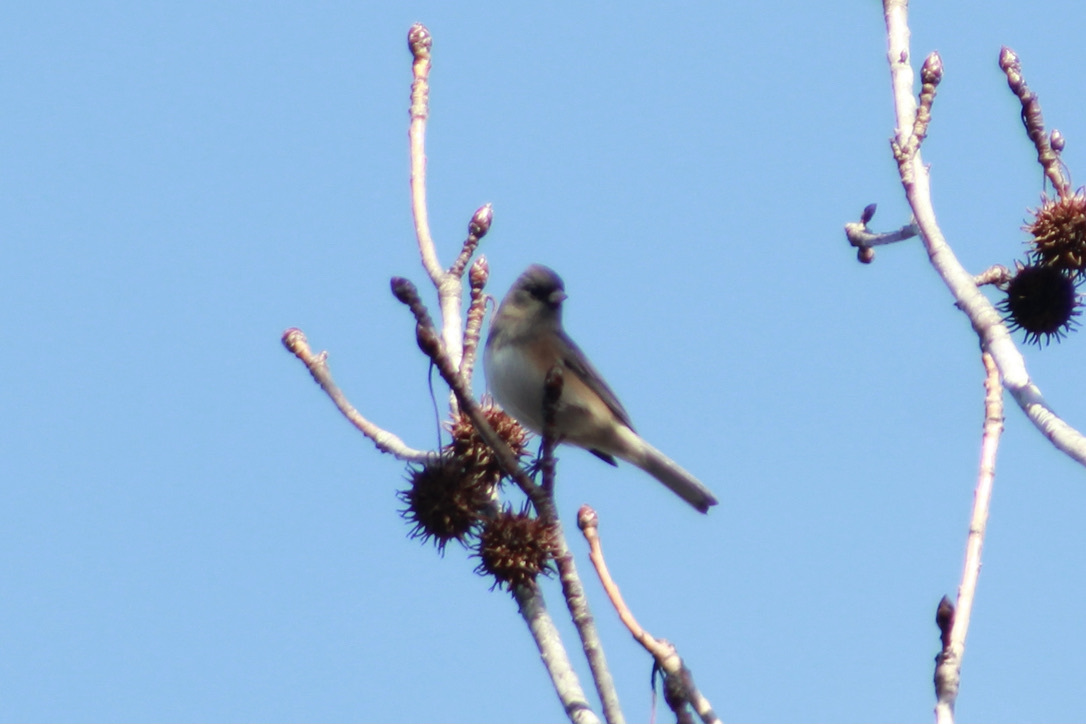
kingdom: Animalia
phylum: Chordata
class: Aves
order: Passeriformes
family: Passerellidae
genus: Junco
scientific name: Junco hyemalis
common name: Dark-eyed junco
